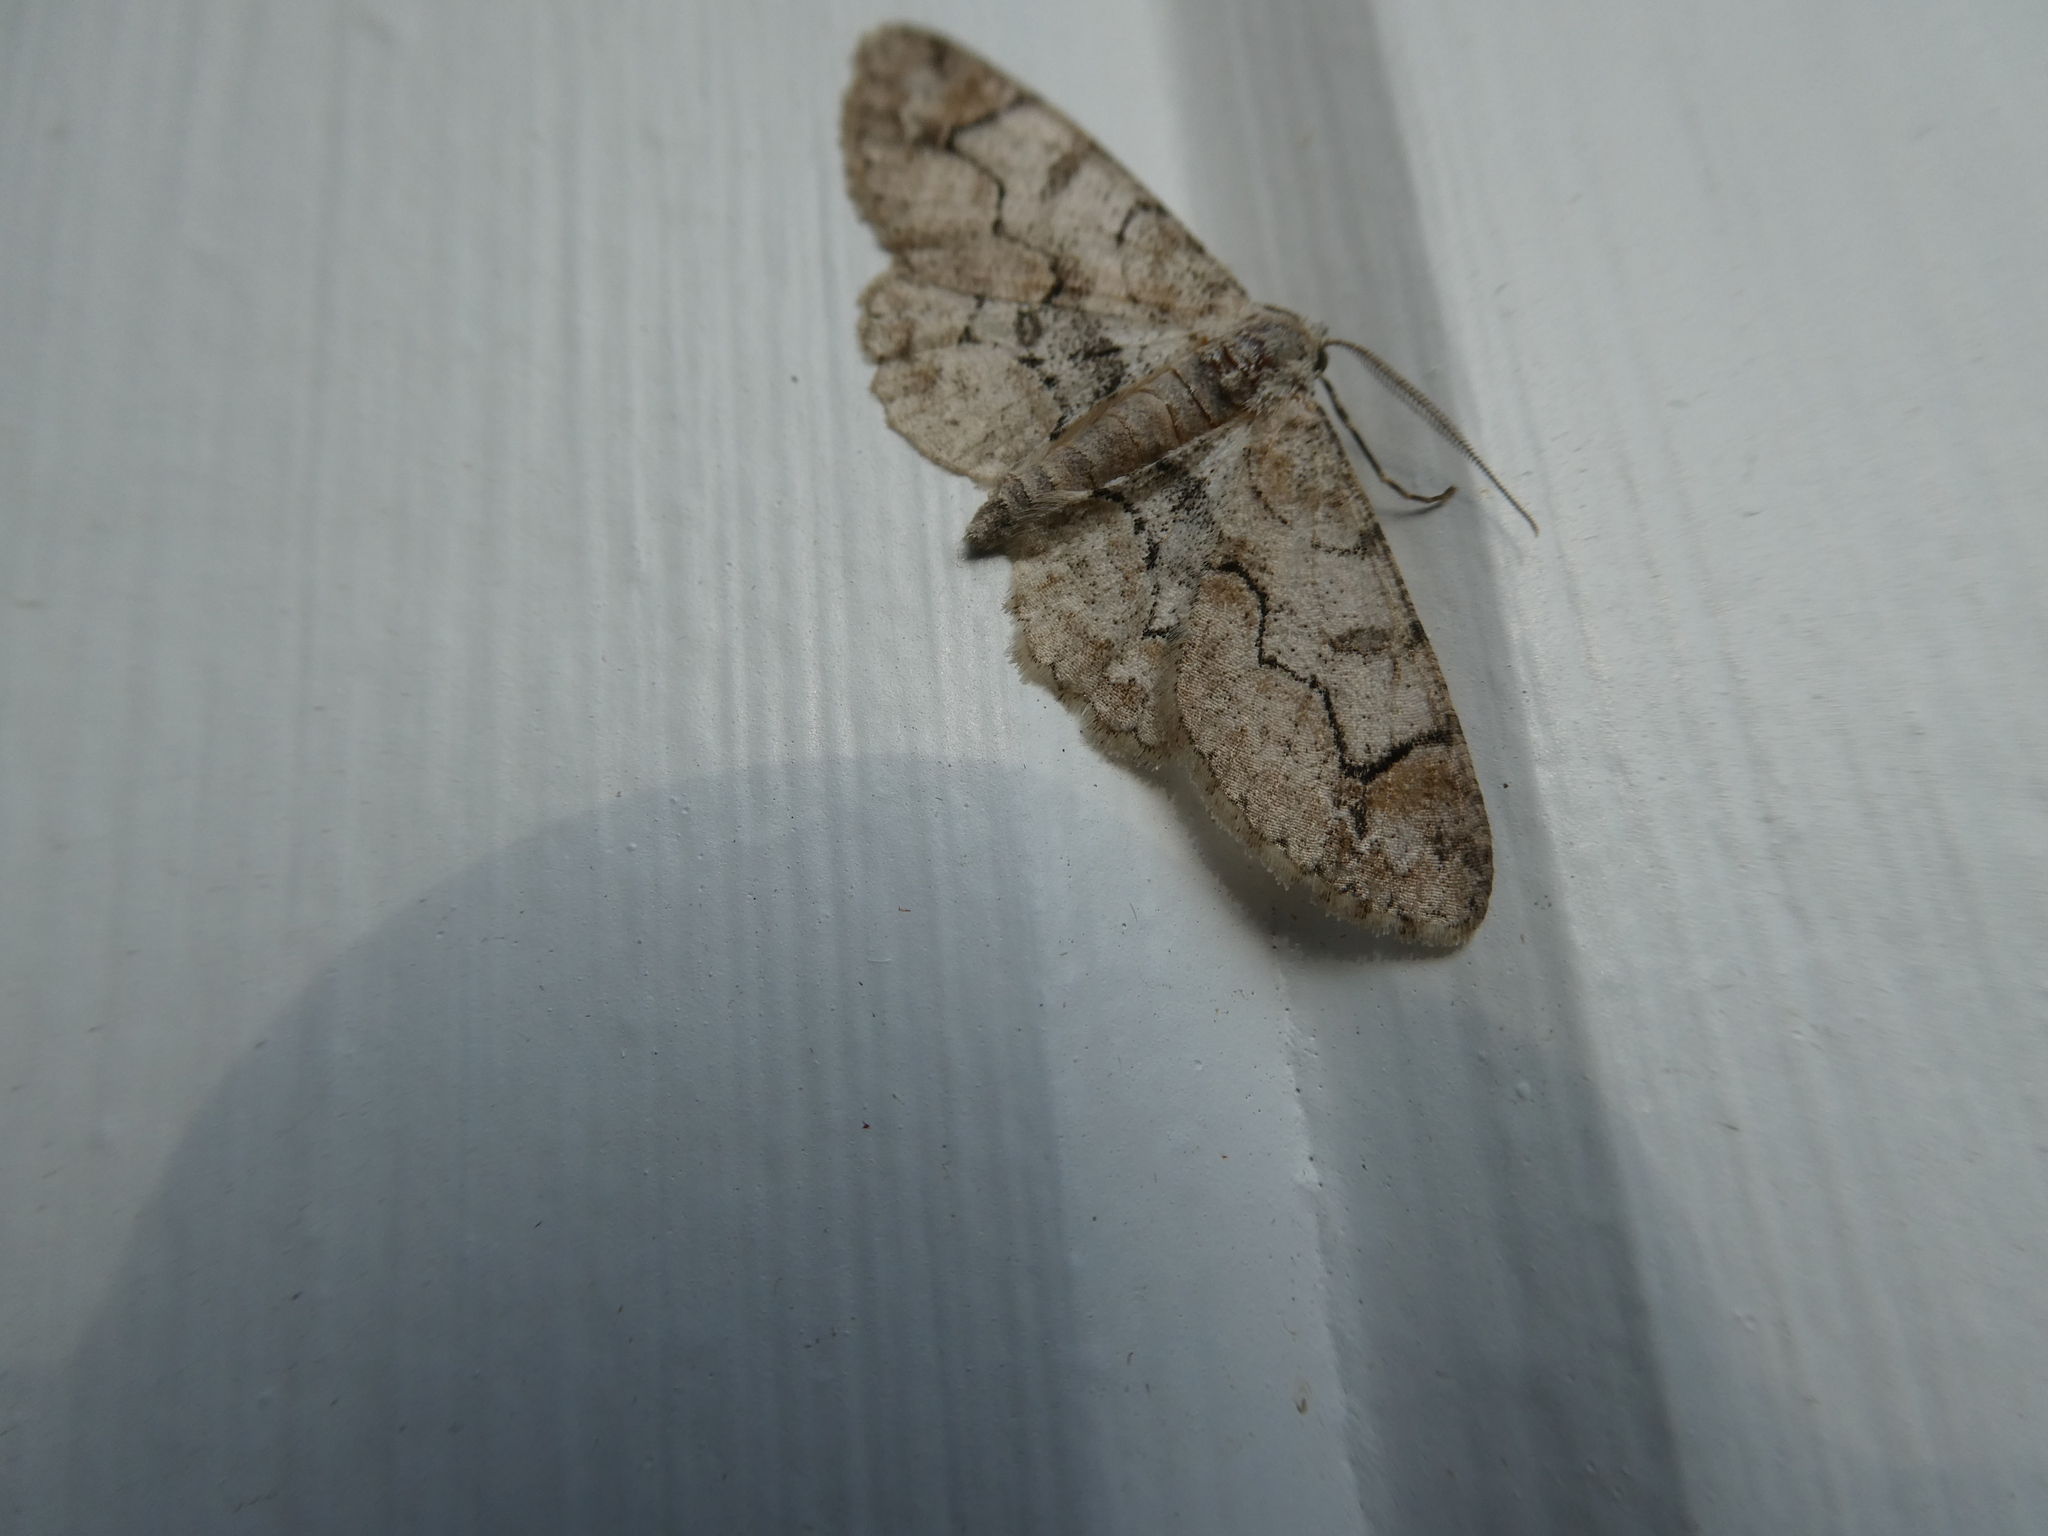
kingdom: Animalia
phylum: Arthropoda
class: Insecta
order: Lepidoptera
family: Geometridae
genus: Iridopsis
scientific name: Iridopsis larvaria
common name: Bent-line gray
